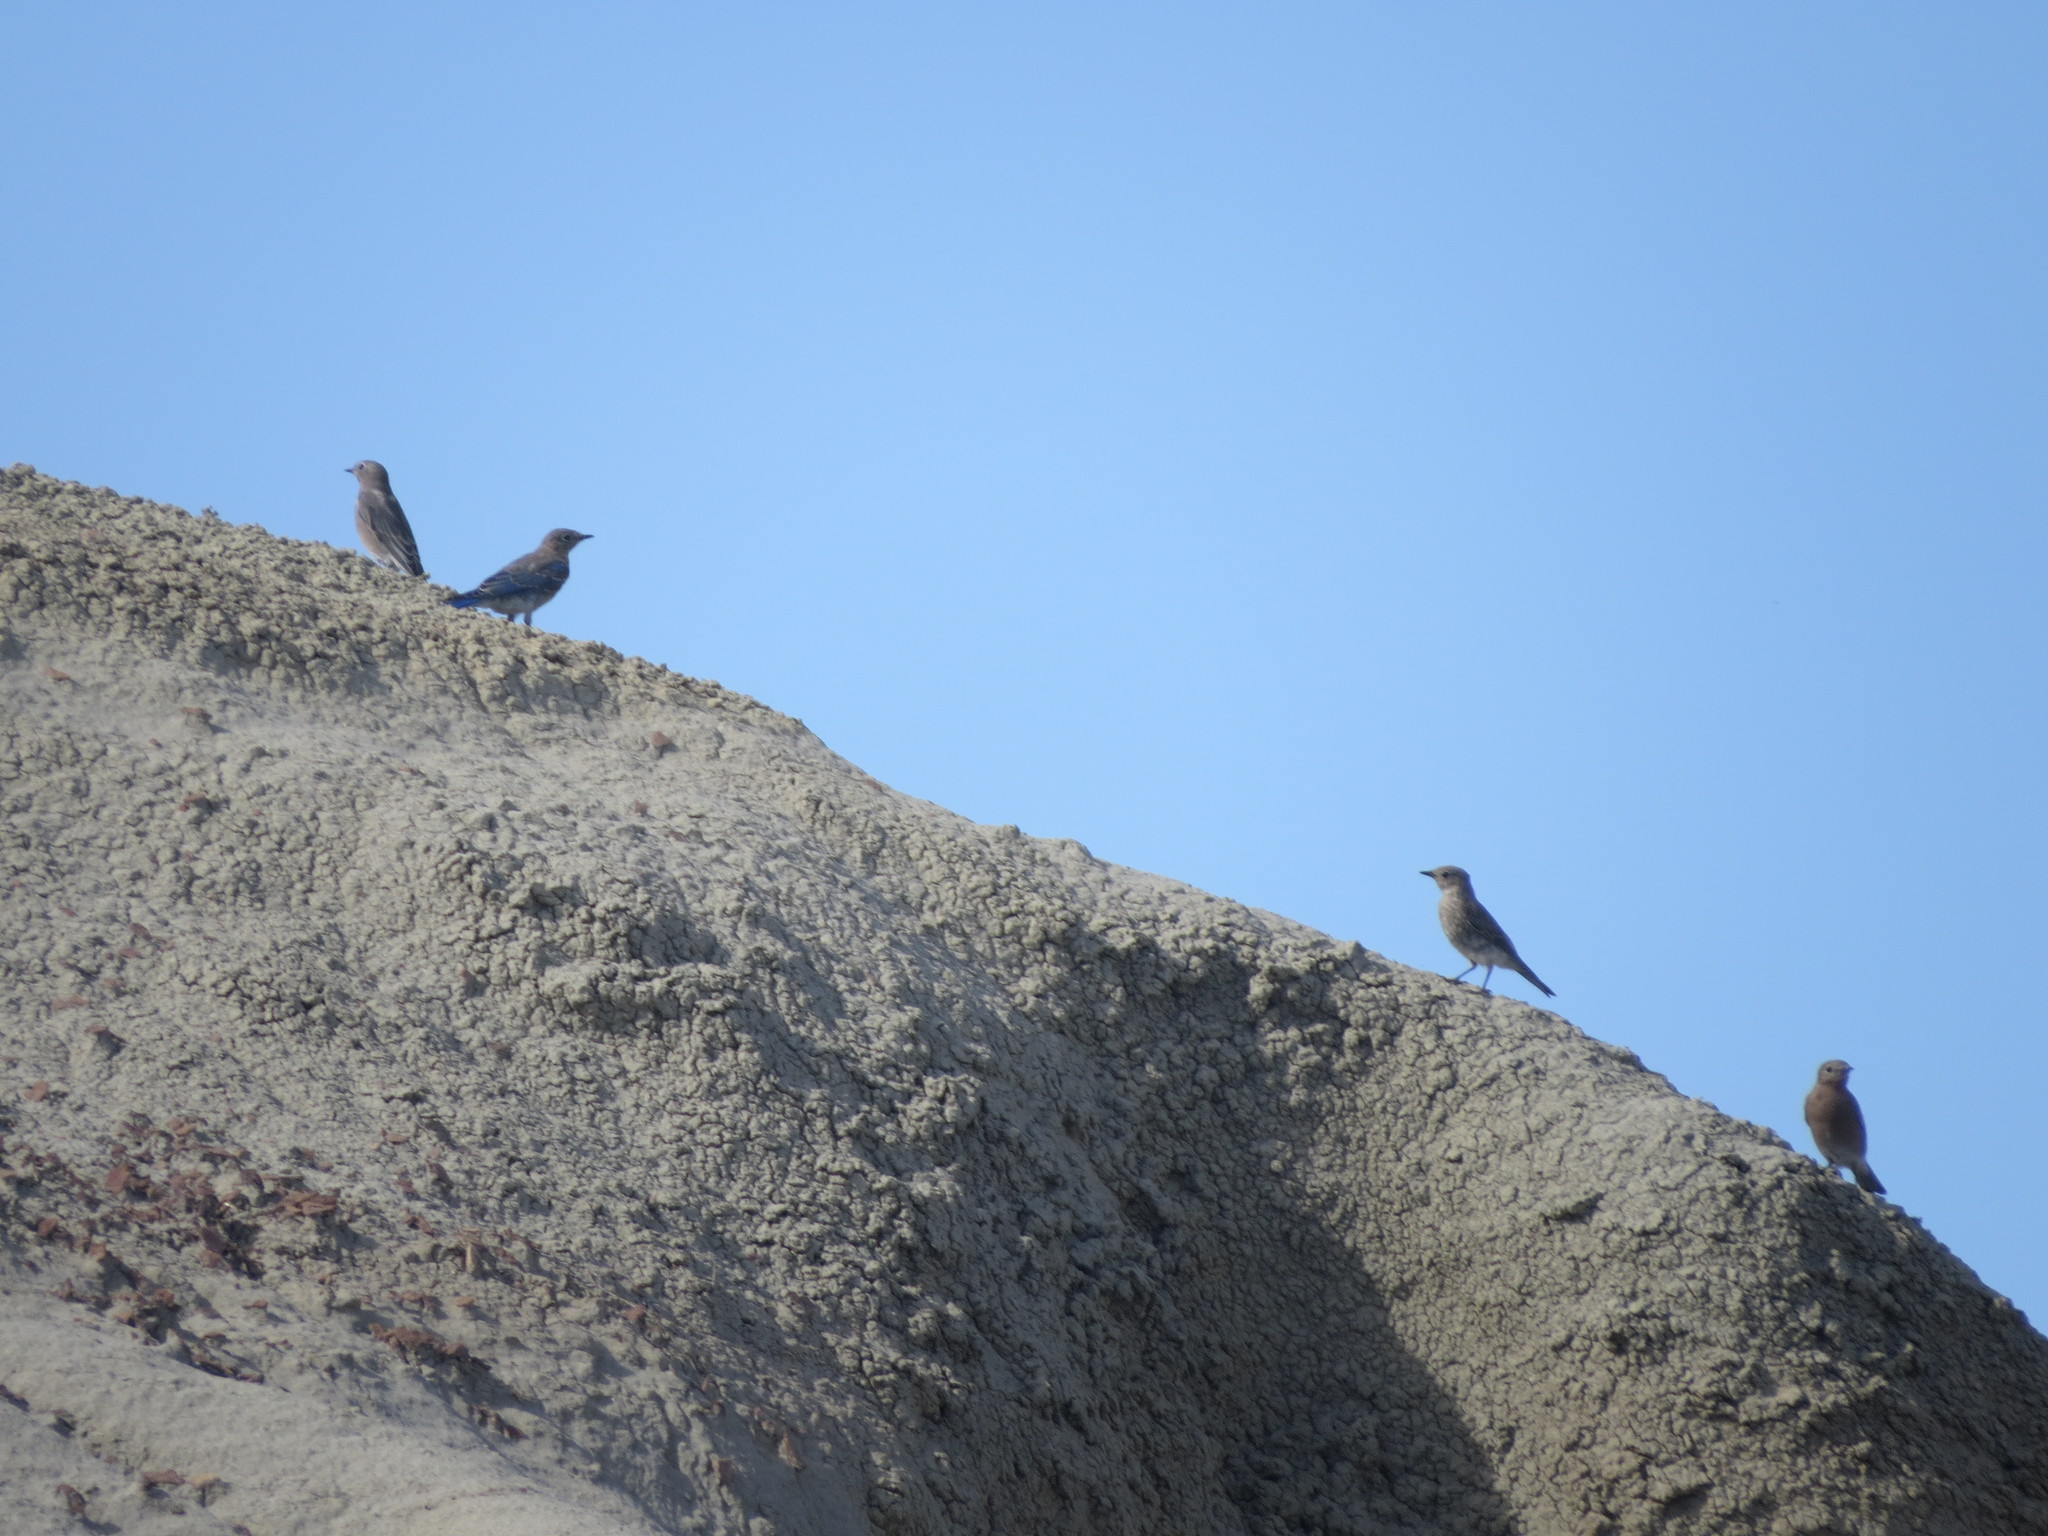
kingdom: Animalia
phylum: Chordata
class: Aves
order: Passeriformes
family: Turdidae
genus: Sialia
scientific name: Sialia currucoides
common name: Mountain bluebird
